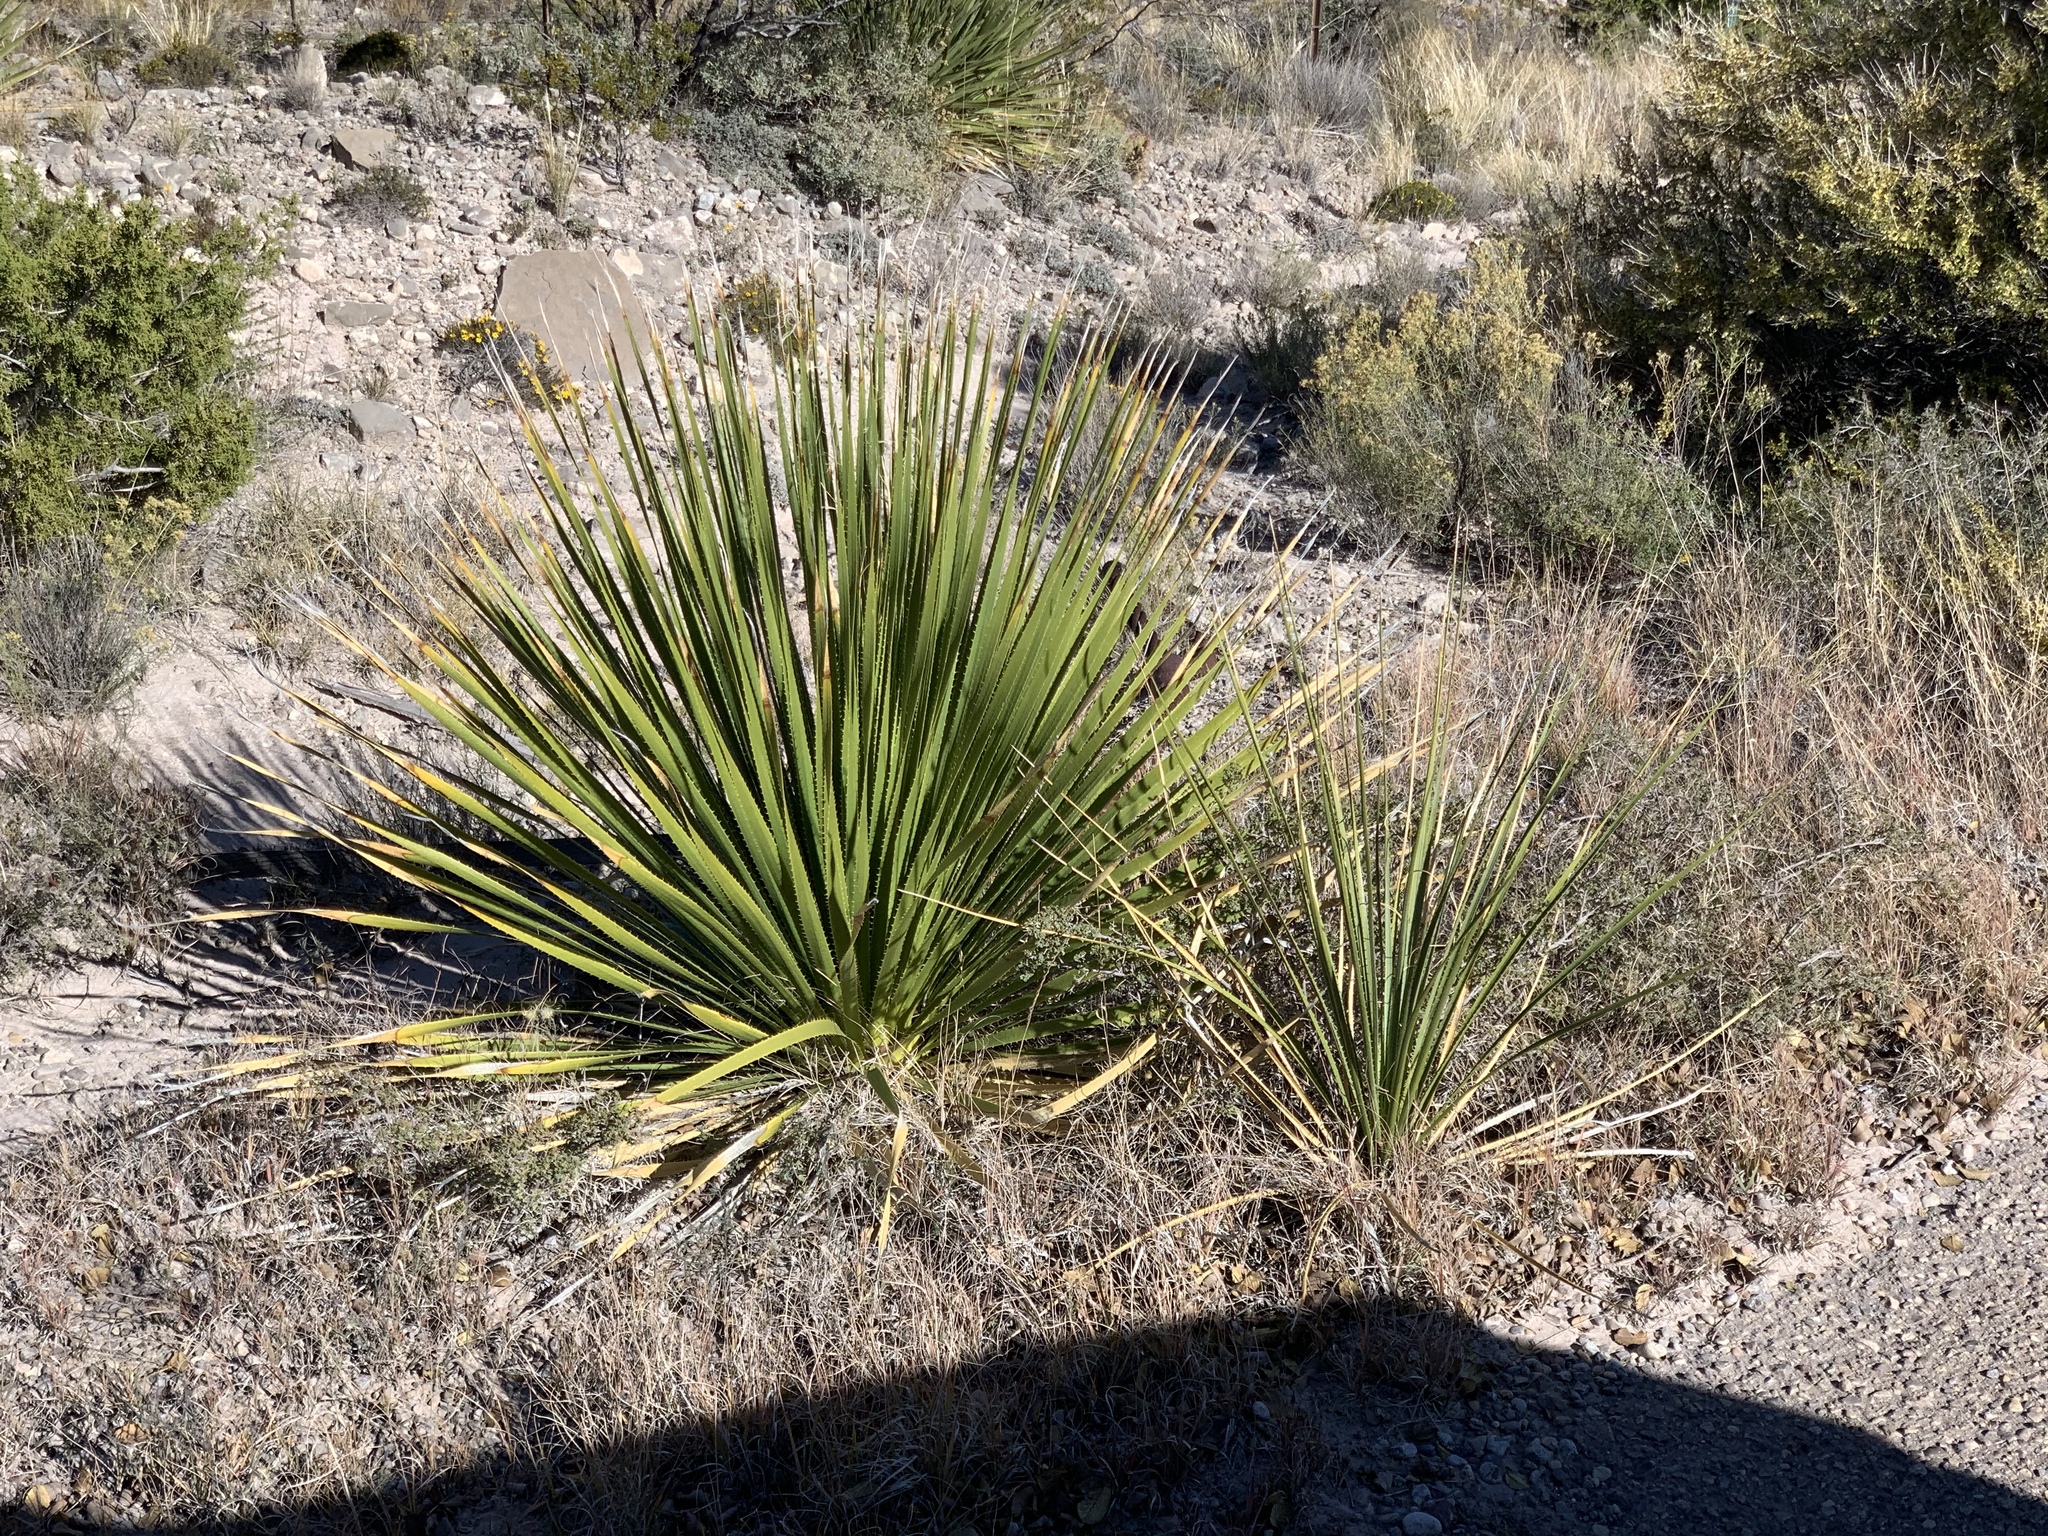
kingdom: Plantae
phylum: Tracheophyta
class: Liliopsida
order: Asparagales
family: Asparagaceae
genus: Dasylirion
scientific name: Dasylirion wheeleri
